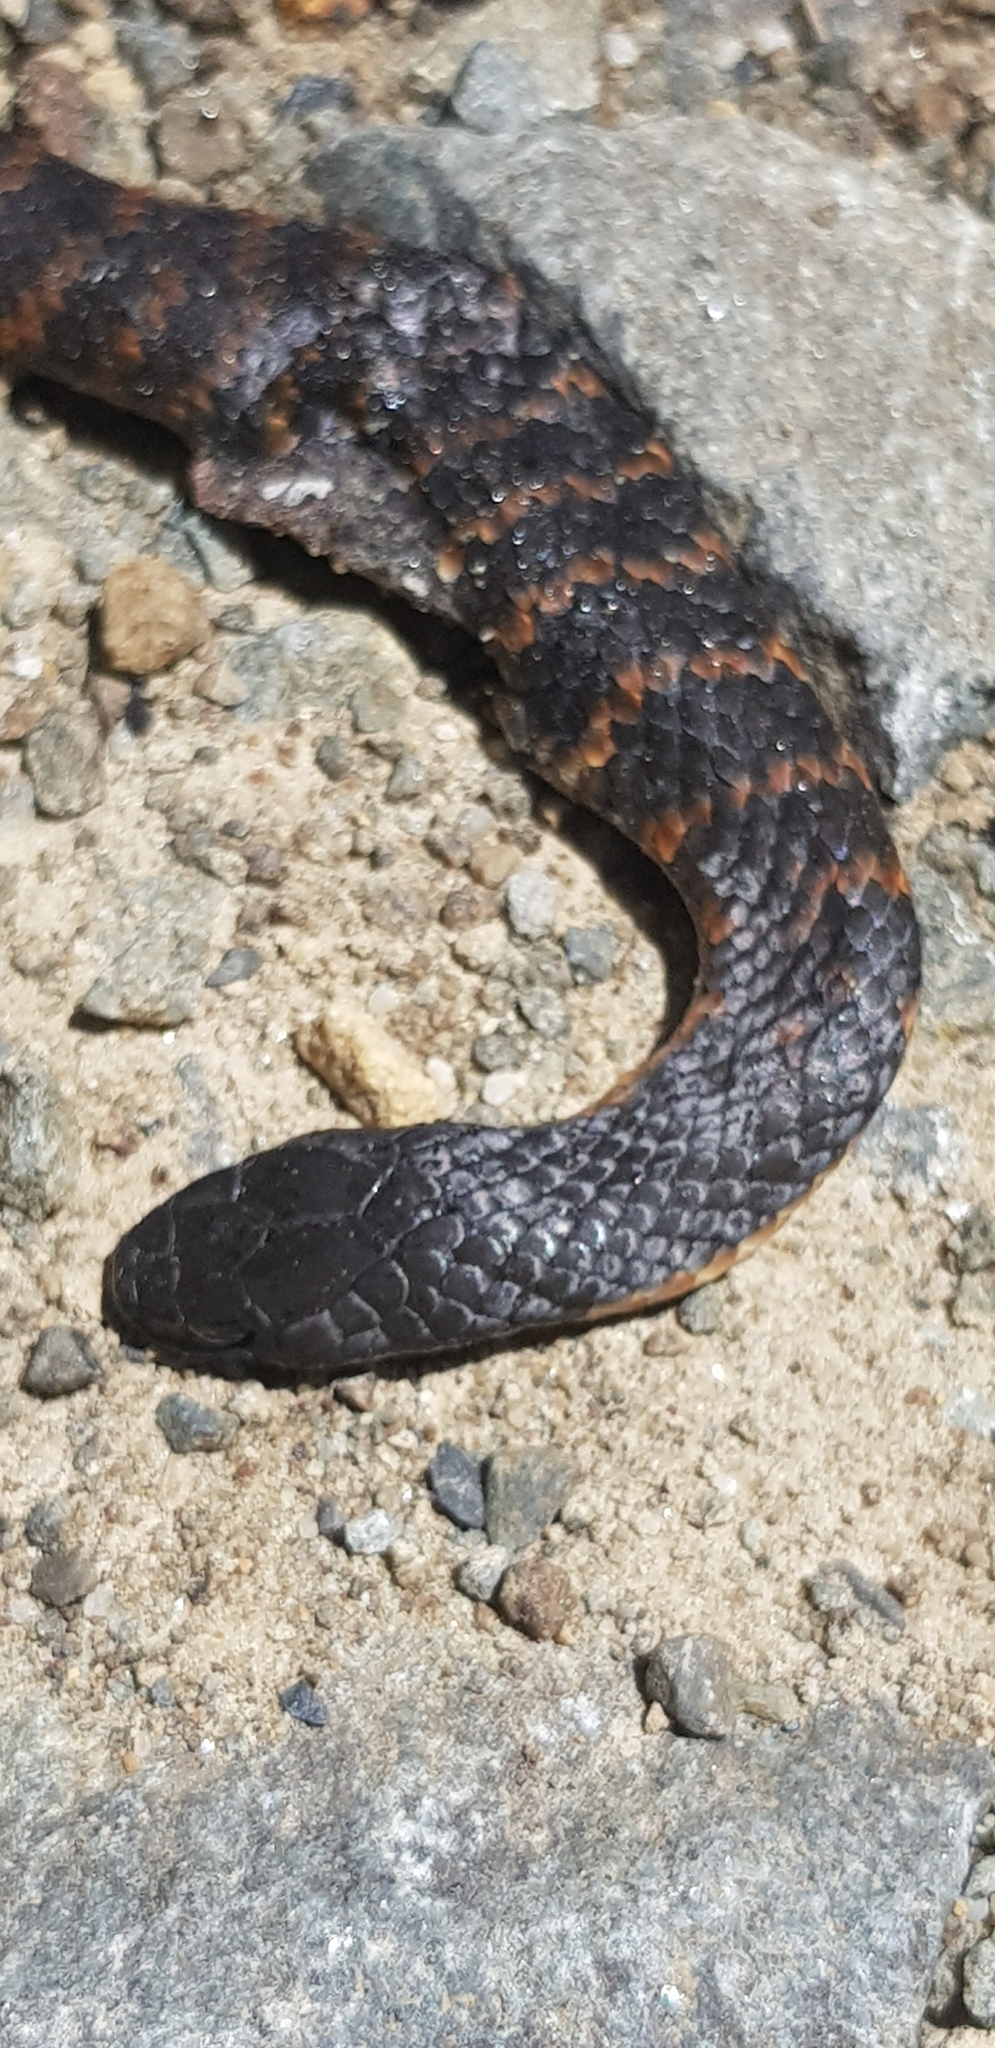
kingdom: Animalia
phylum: Chordata
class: Squamata
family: Elapidae
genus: Notechis
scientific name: Notechis scutatus
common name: Mainland tiger snake
